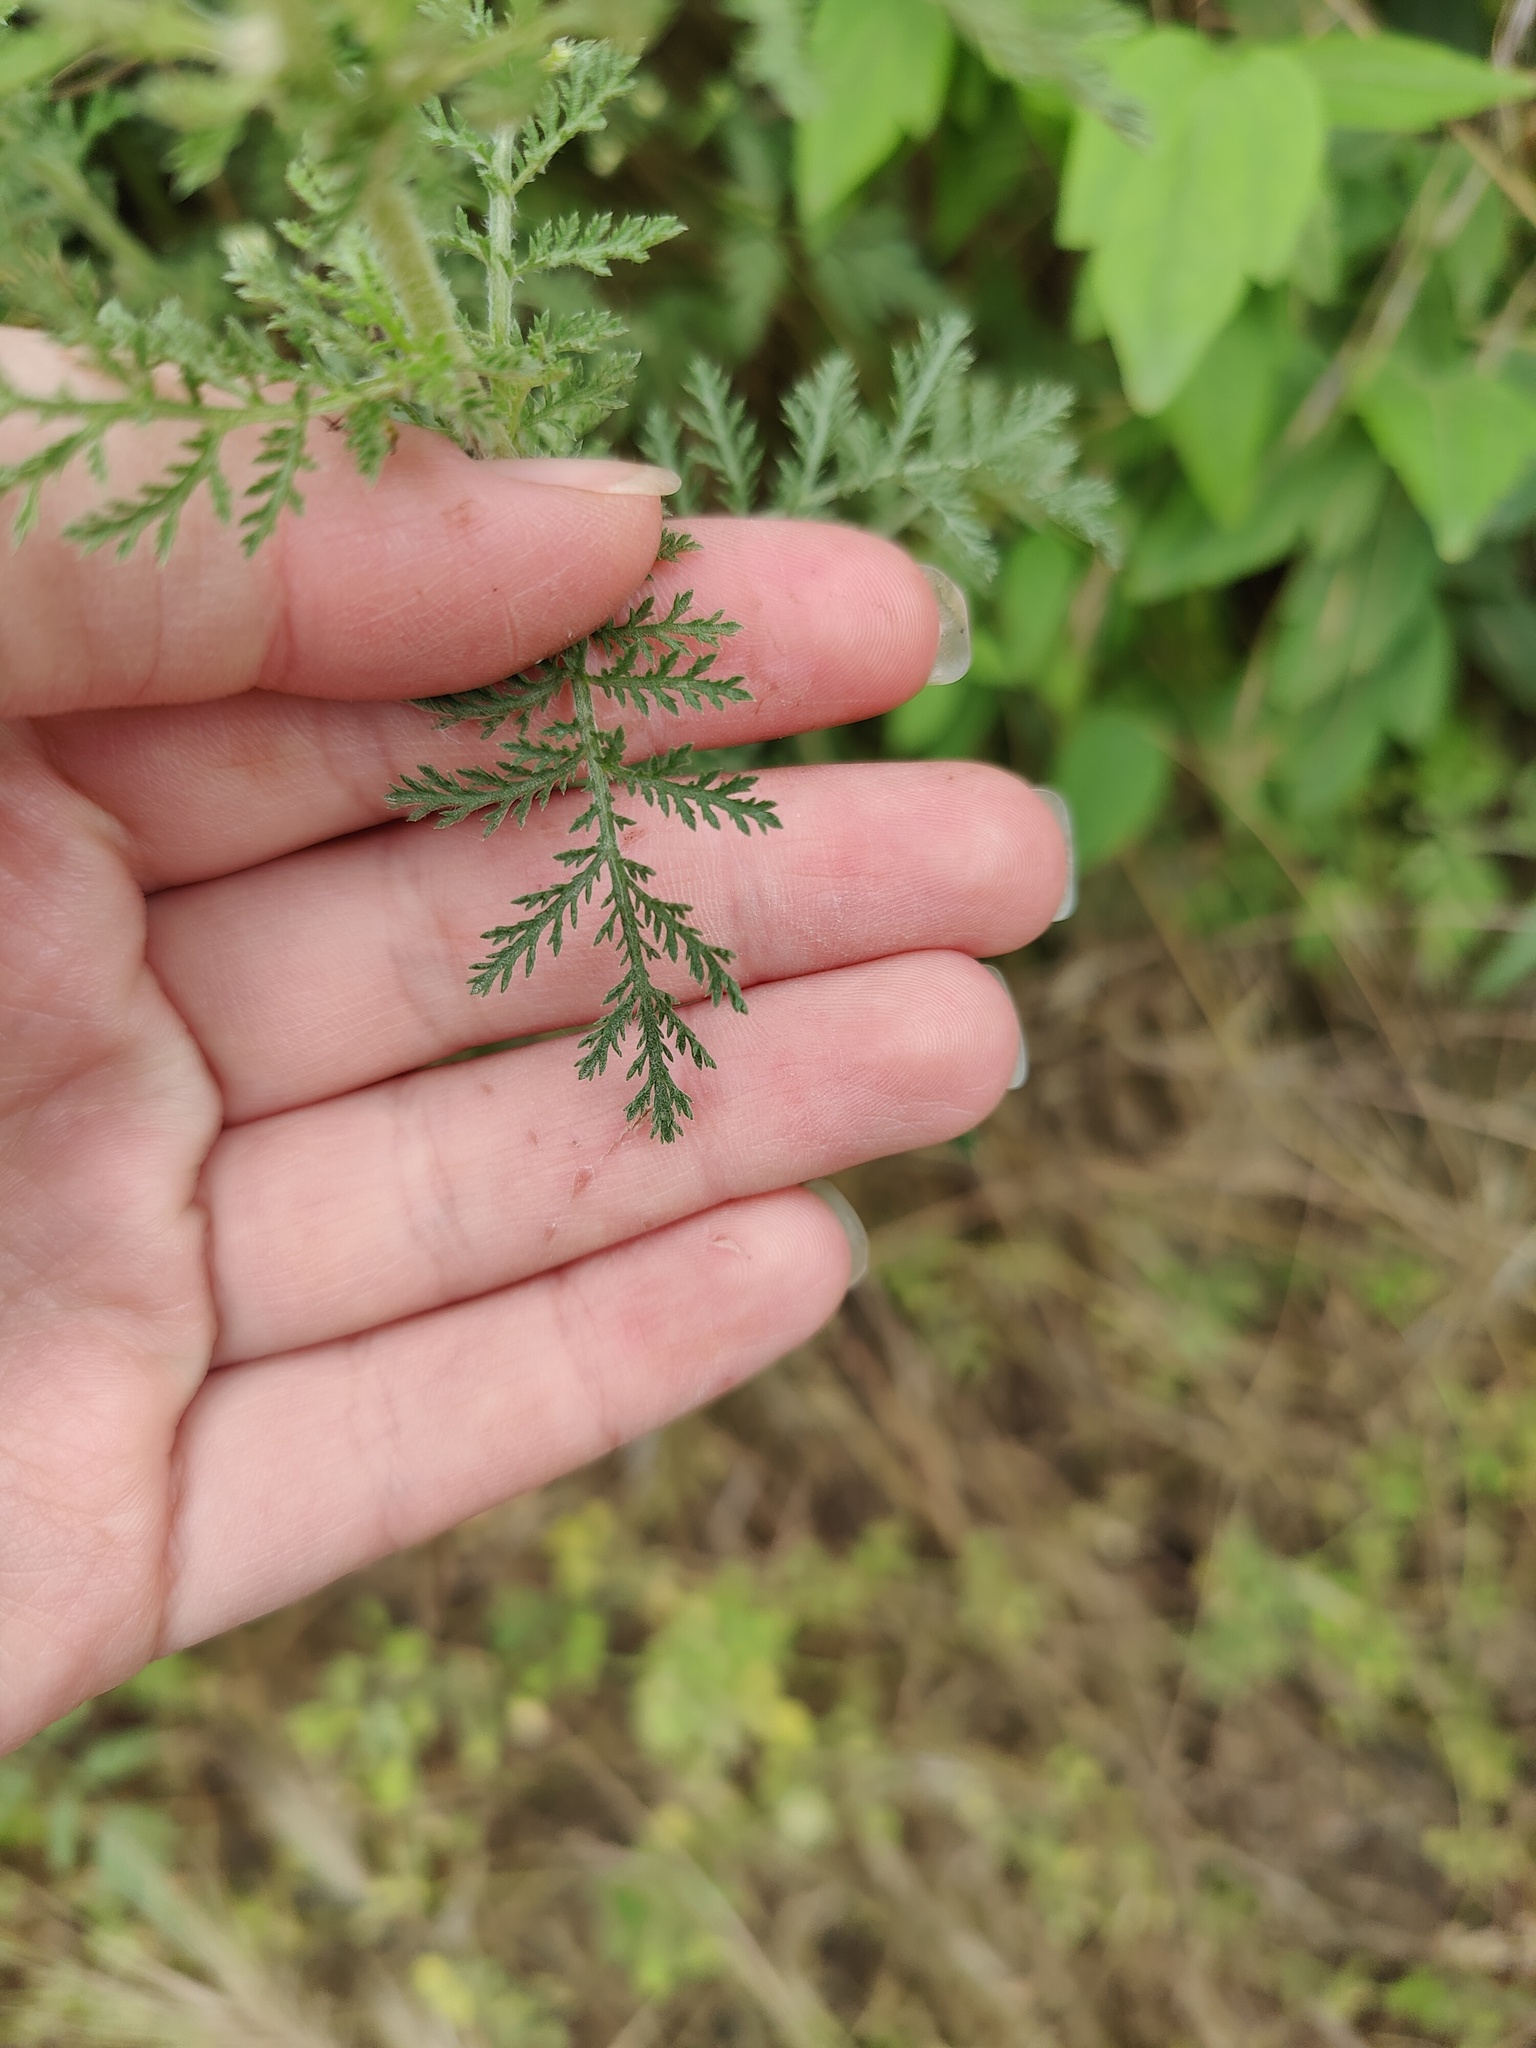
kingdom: Plantae
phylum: Tracheophyta
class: Magnoliopsida
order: Asterales
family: Asteraceae
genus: Achillea
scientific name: Achillea nobilis
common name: Noble yarrow
